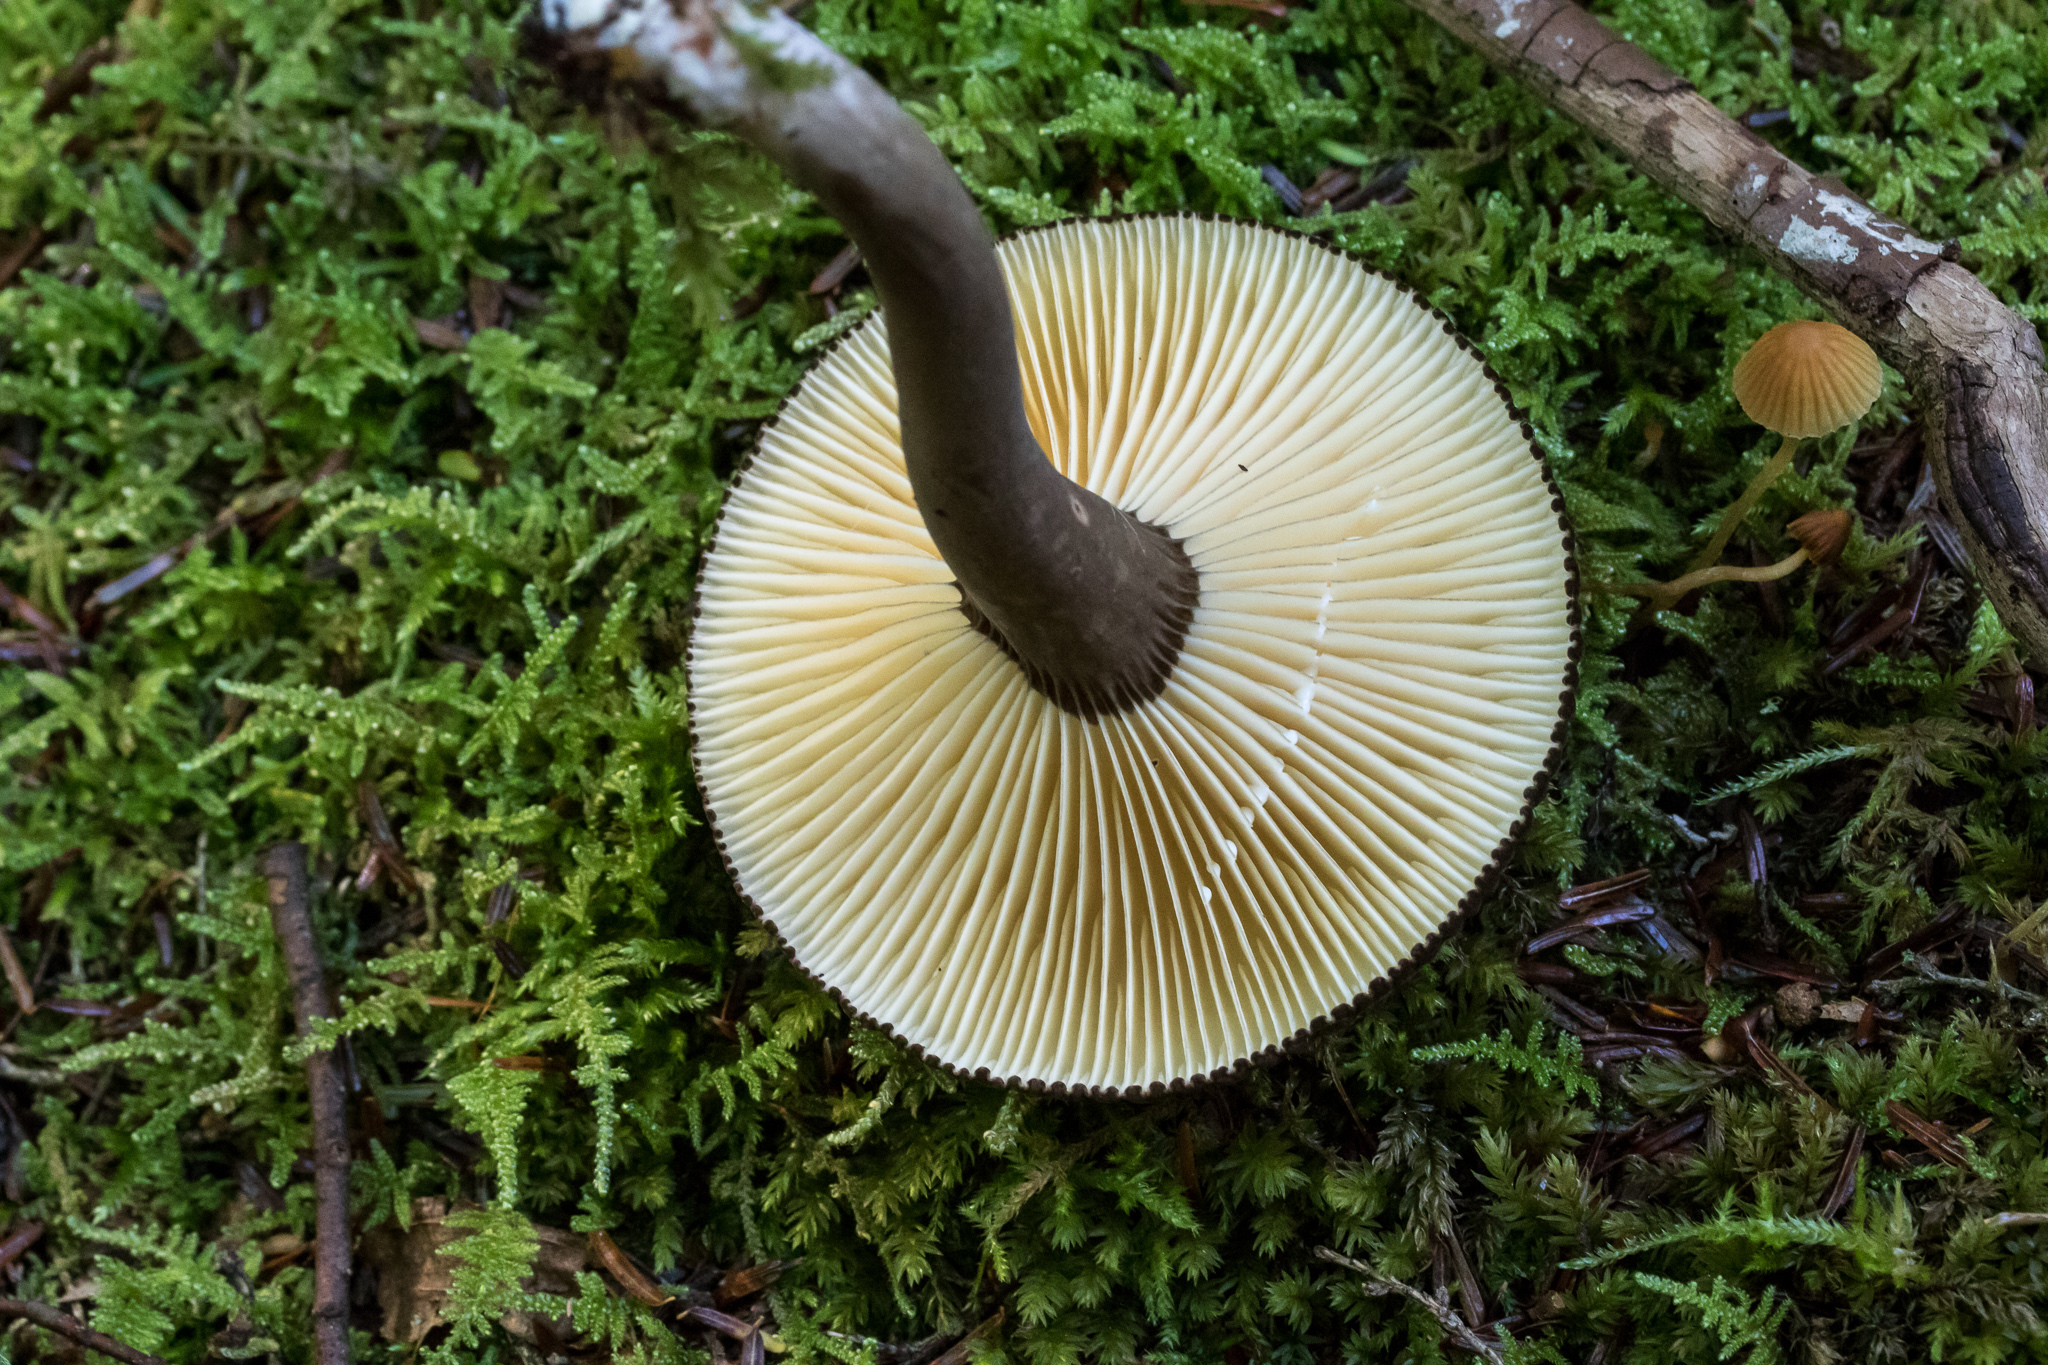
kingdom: Fungi
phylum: Basidiomycota
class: Agaricomycetes
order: Russulales
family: Russulaceae
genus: Lactarius
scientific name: Lactarius lignyotus
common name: Velvet milkcap
